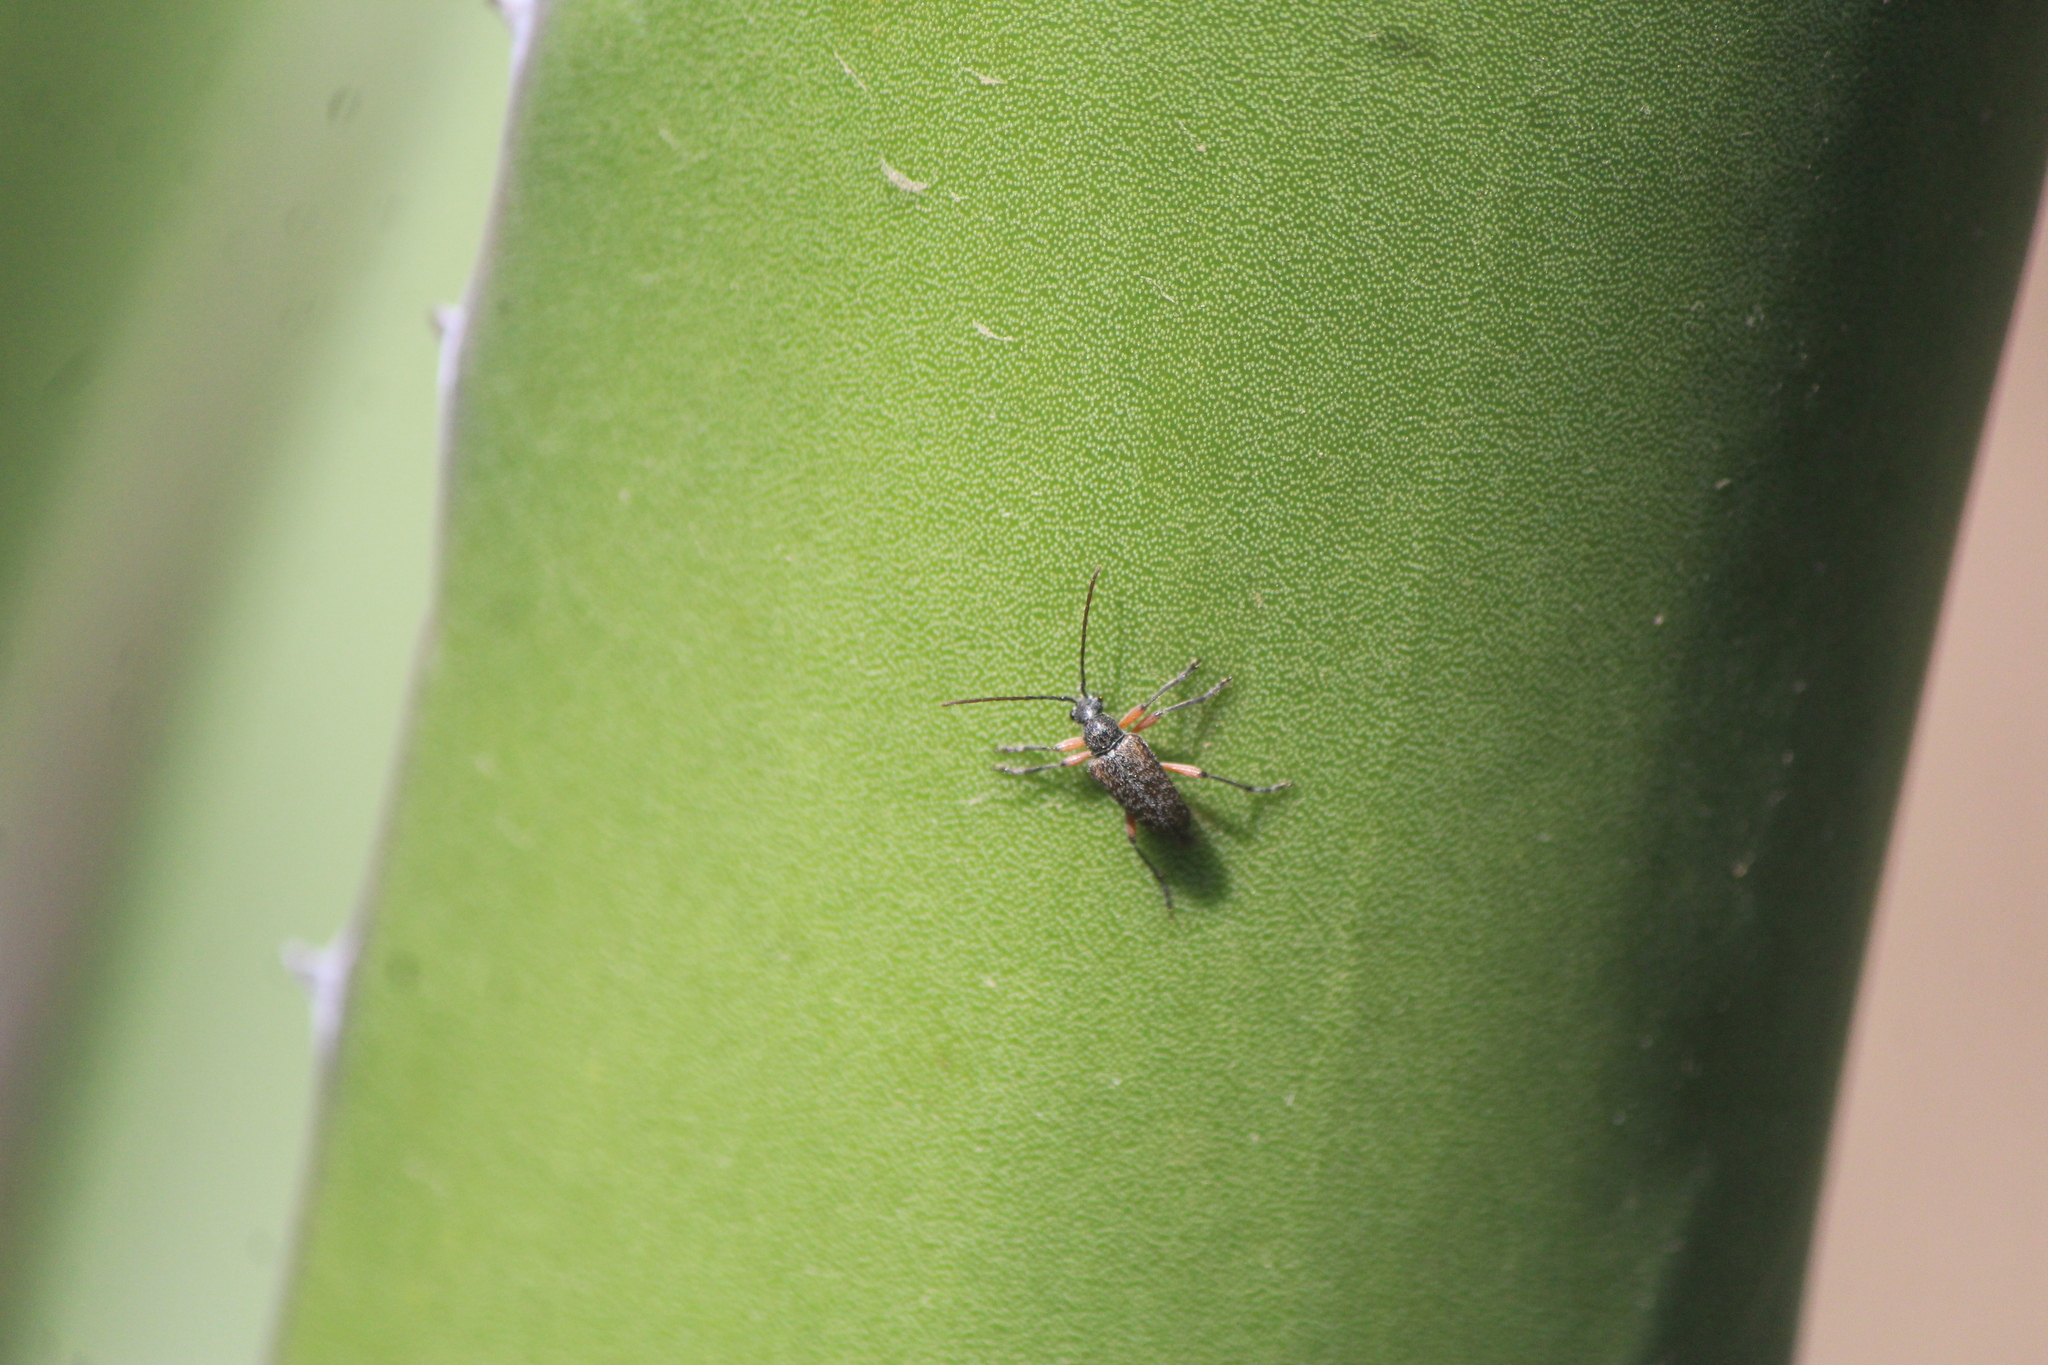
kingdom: Animalia
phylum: Arthropoda
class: Insecta
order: Coleoptera
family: Cerambycidae
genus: Tomentgaurotes
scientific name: Tomentgaurotes maculosus
